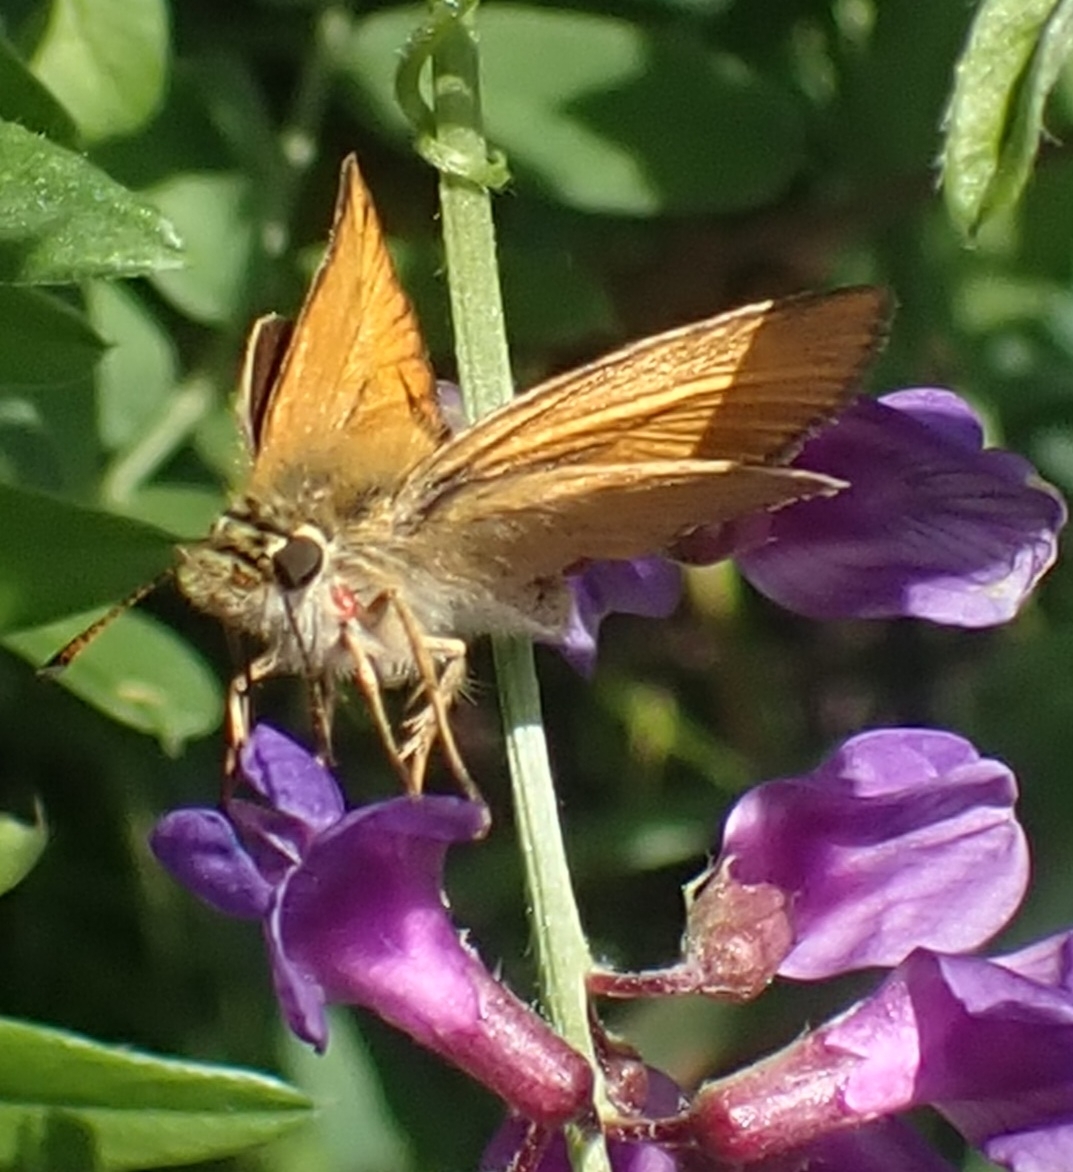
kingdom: Animalia
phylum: Arthropoda
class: Insecta
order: Lepidoptera
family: Hesperiidae
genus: Thymelicus
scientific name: Thymelicus lineola
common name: Essex skipper
